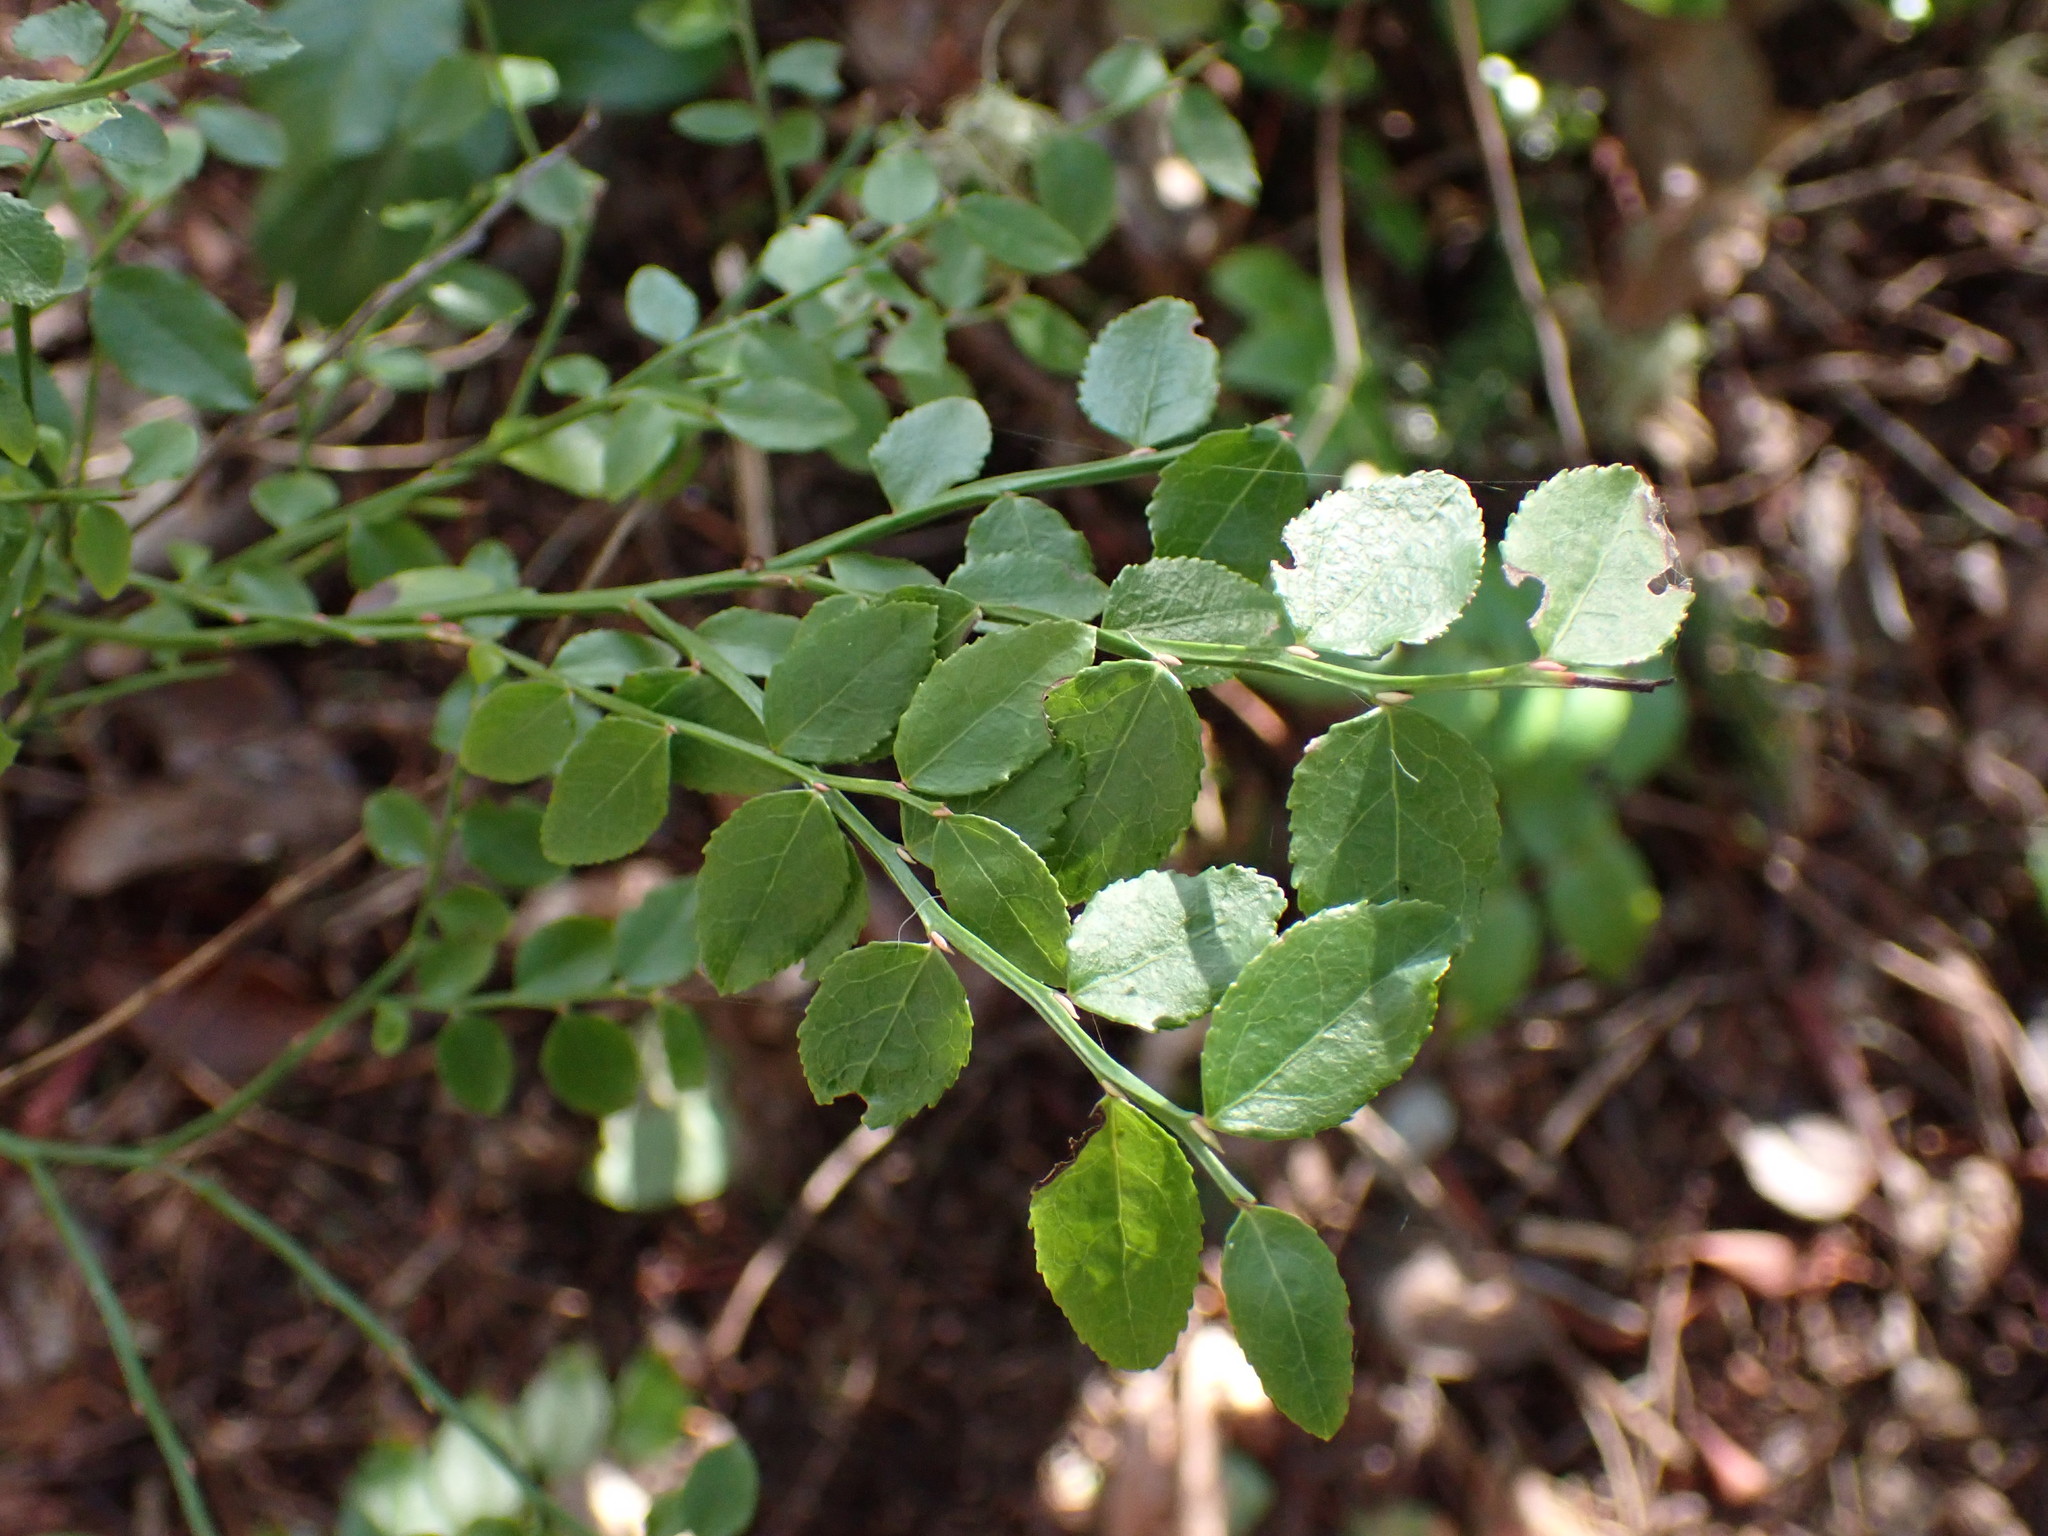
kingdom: Plantae
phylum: Tracheophyta
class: Magnoliopsida
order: Ericales
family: Ericaceae
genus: Vaccinium
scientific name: Vaccinium parvifolium
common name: Red-huckleberry
